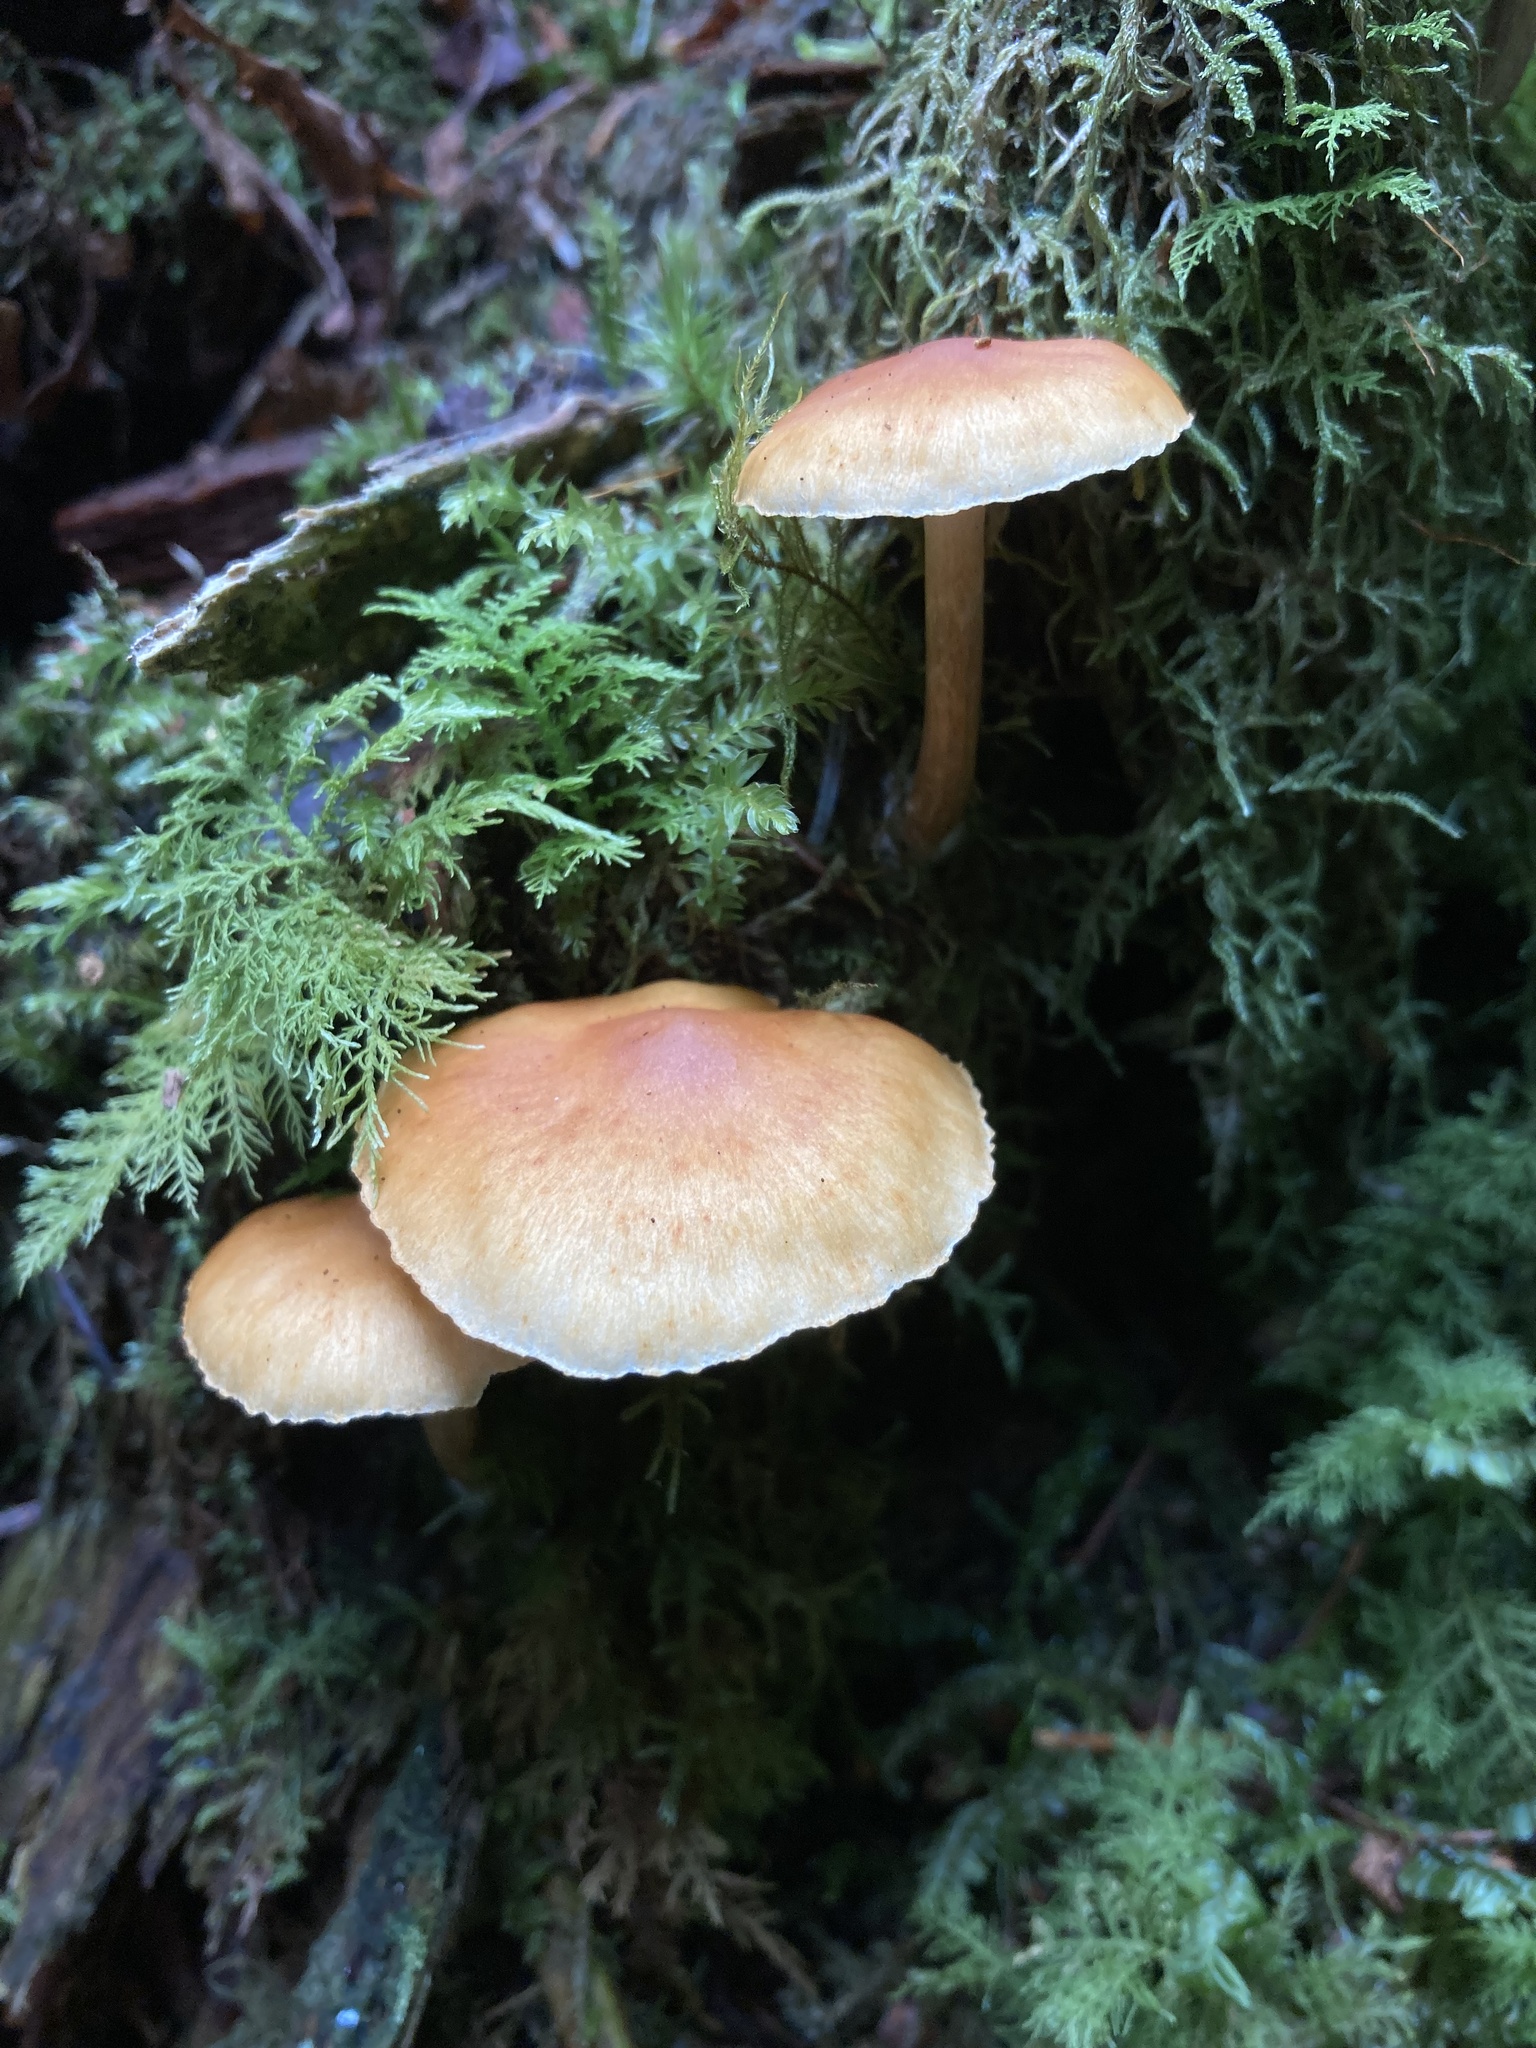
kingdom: Fungi
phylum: Basidiomycota
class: Agaricomycetes
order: Agaricales
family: Hymenogastraceae
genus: Gymnopilus
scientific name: Gymnopilus penetrans
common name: Common rustgill
